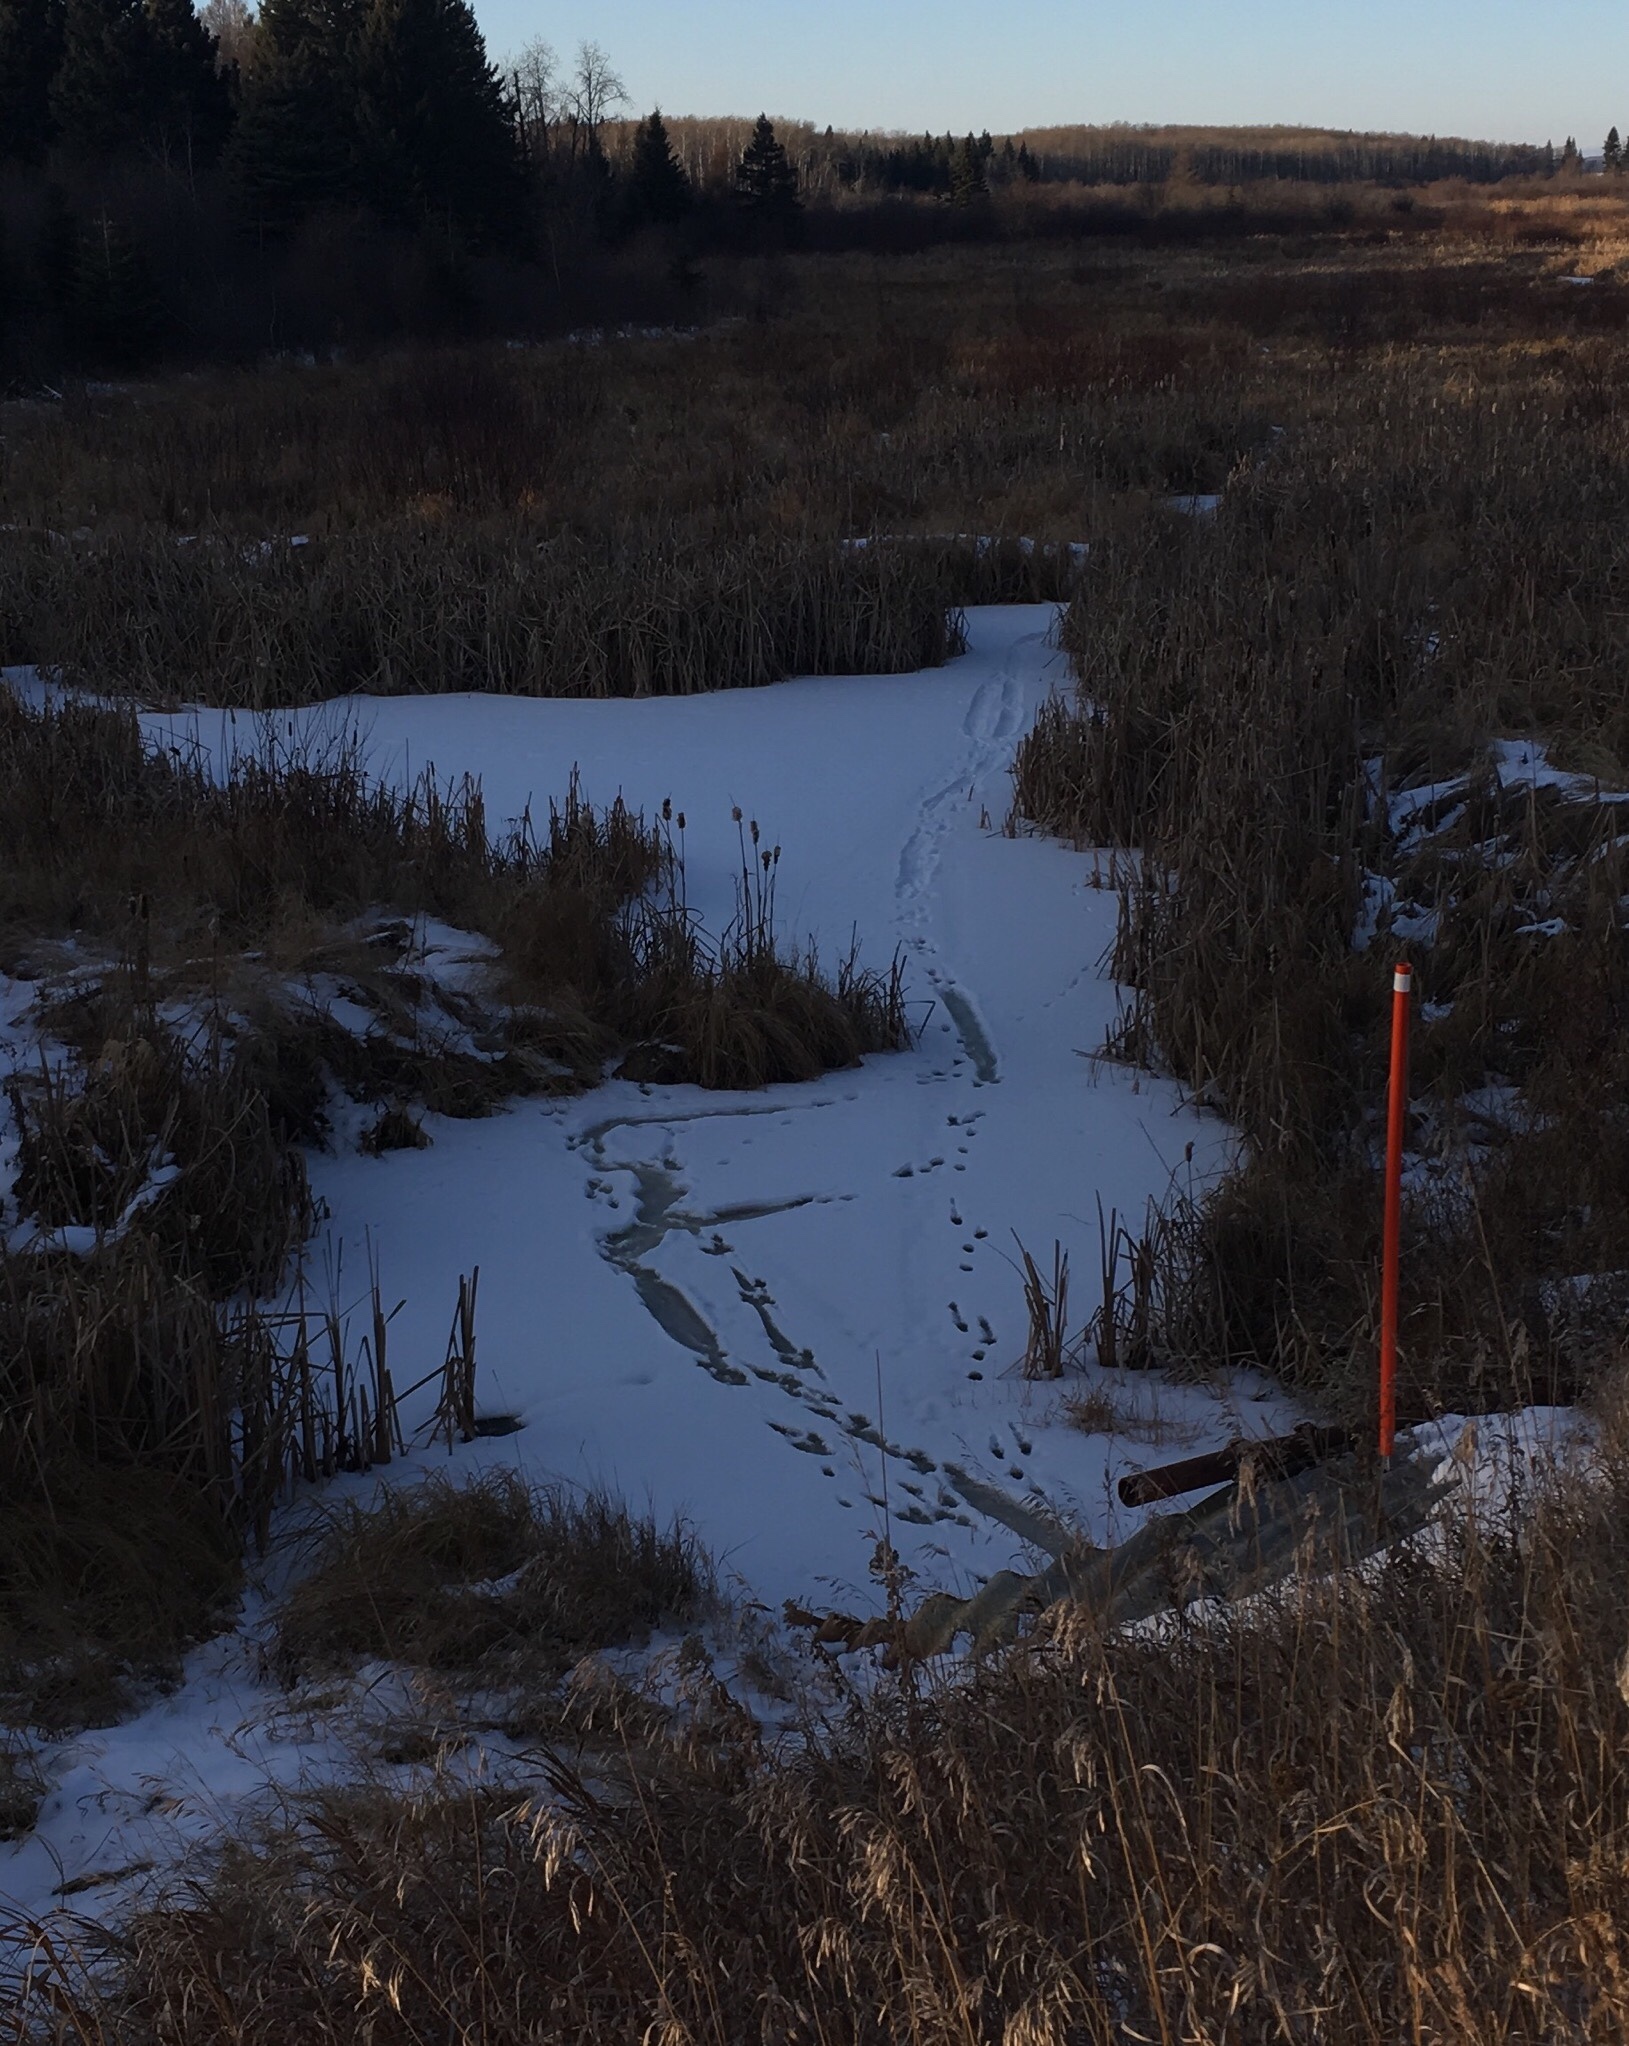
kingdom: Animalia
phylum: Chordata
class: Mammalia
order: Carnivora
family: Mustelidae
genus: Lontra
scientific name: Lontra canadensis
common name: North american river otter
